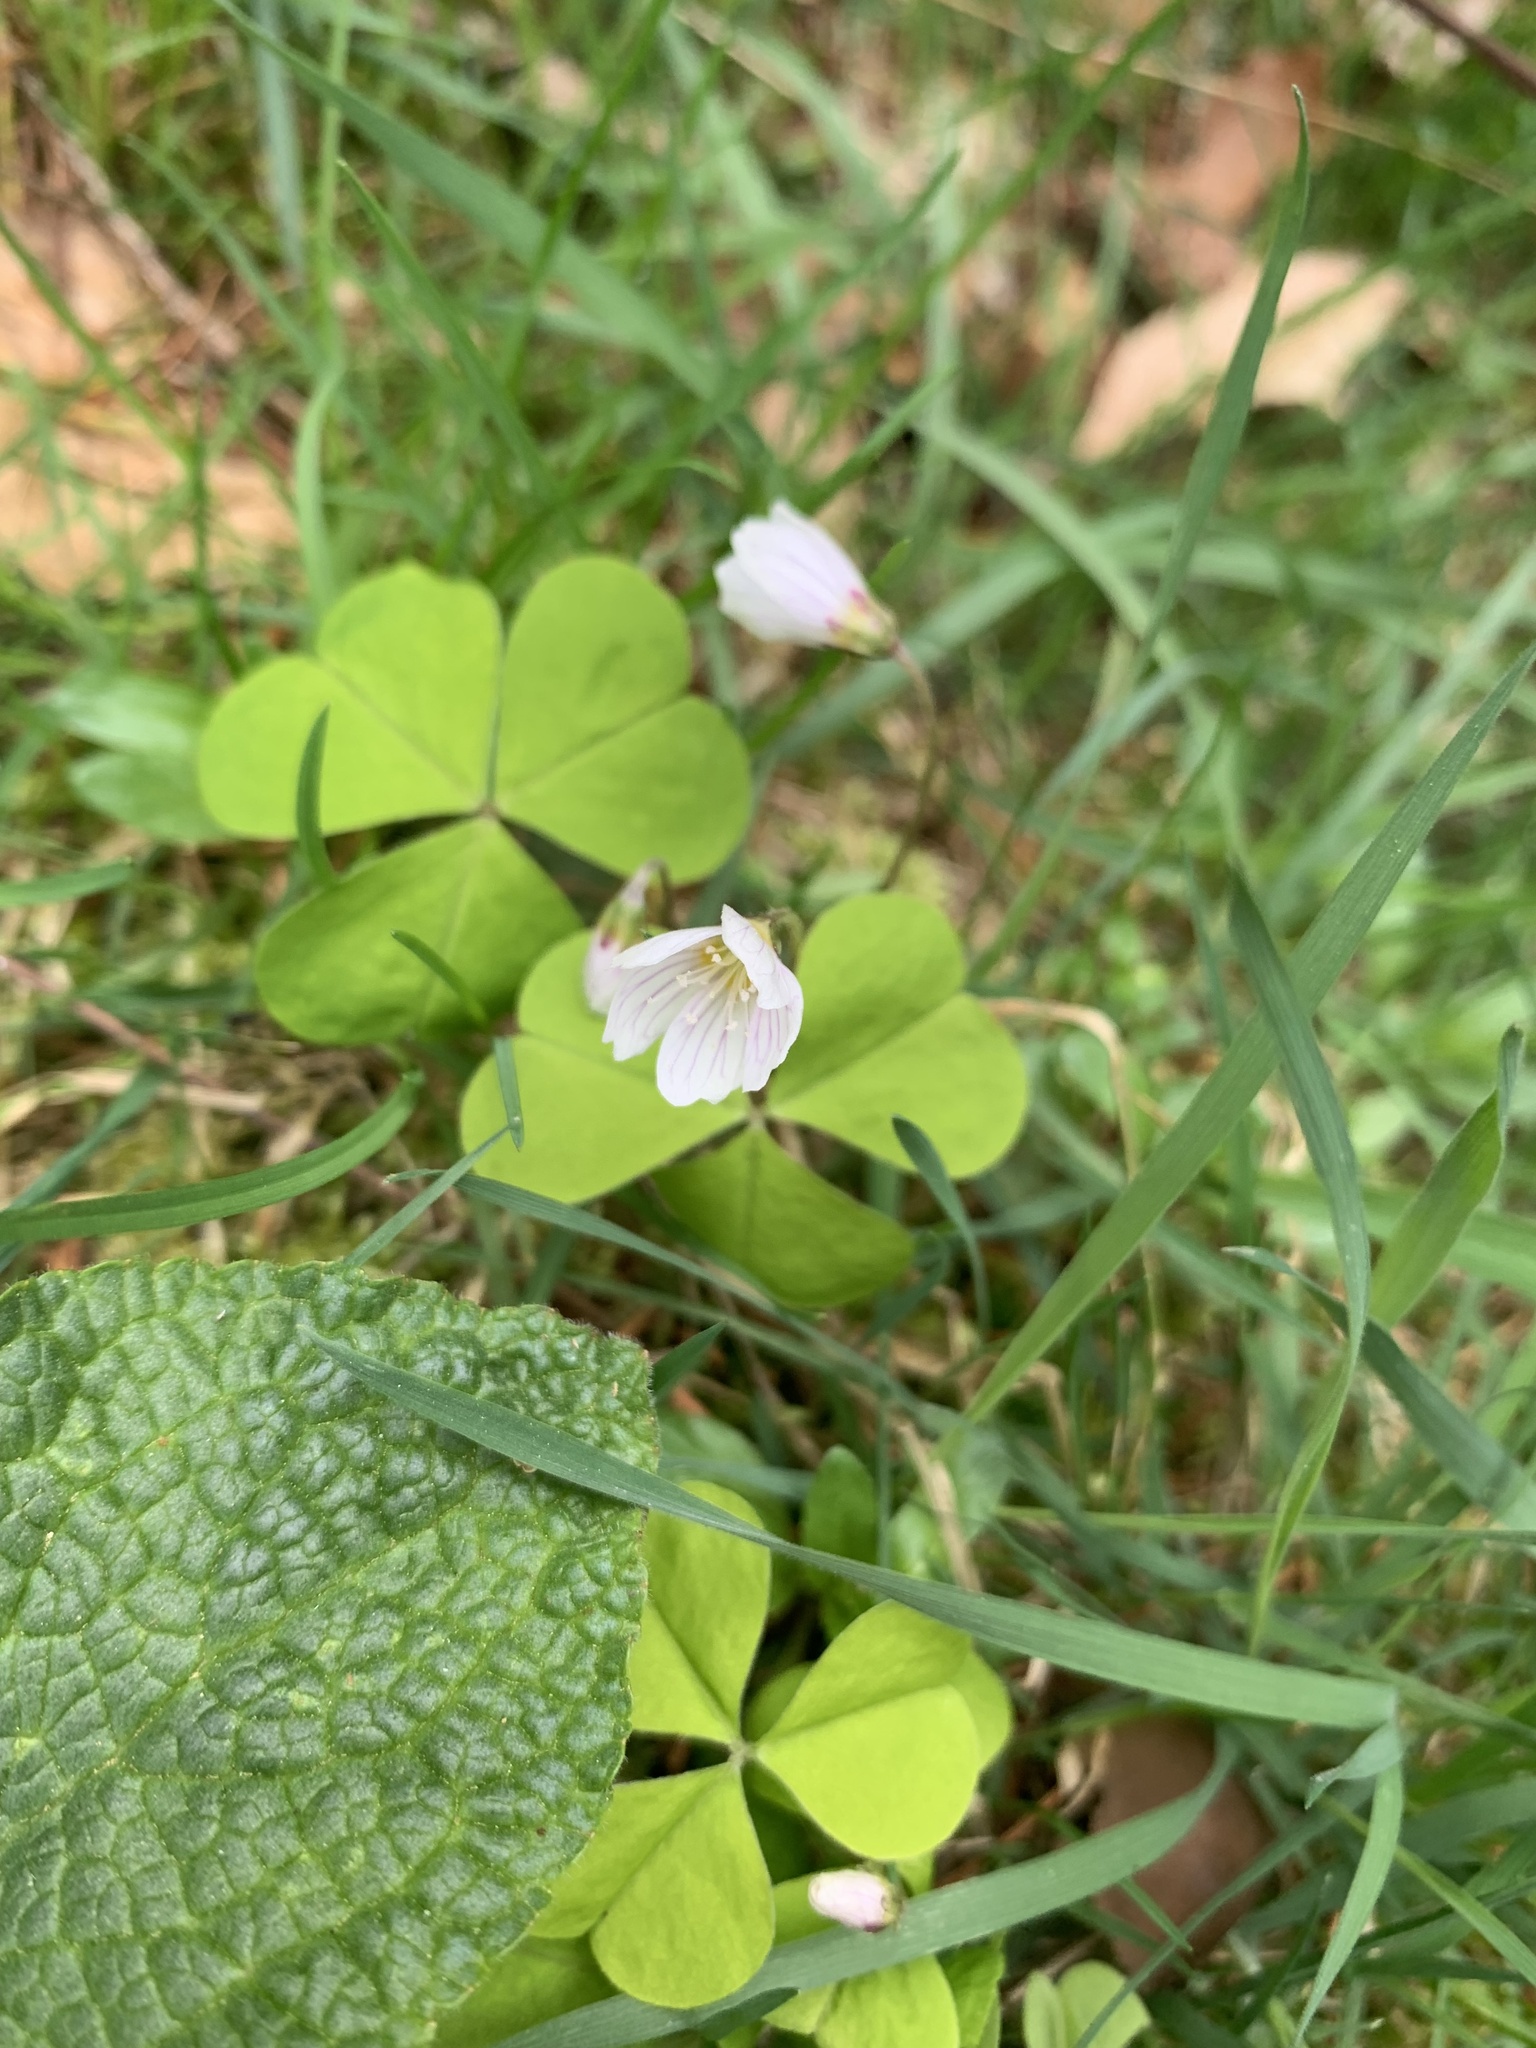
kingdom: Plantae
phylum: Tracheophyta
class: Magnoliopsida
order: Oxalidales
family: Oxalidaceae
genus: Oxalis
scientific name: Oxalis acetosella
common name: Wood-sorrel
